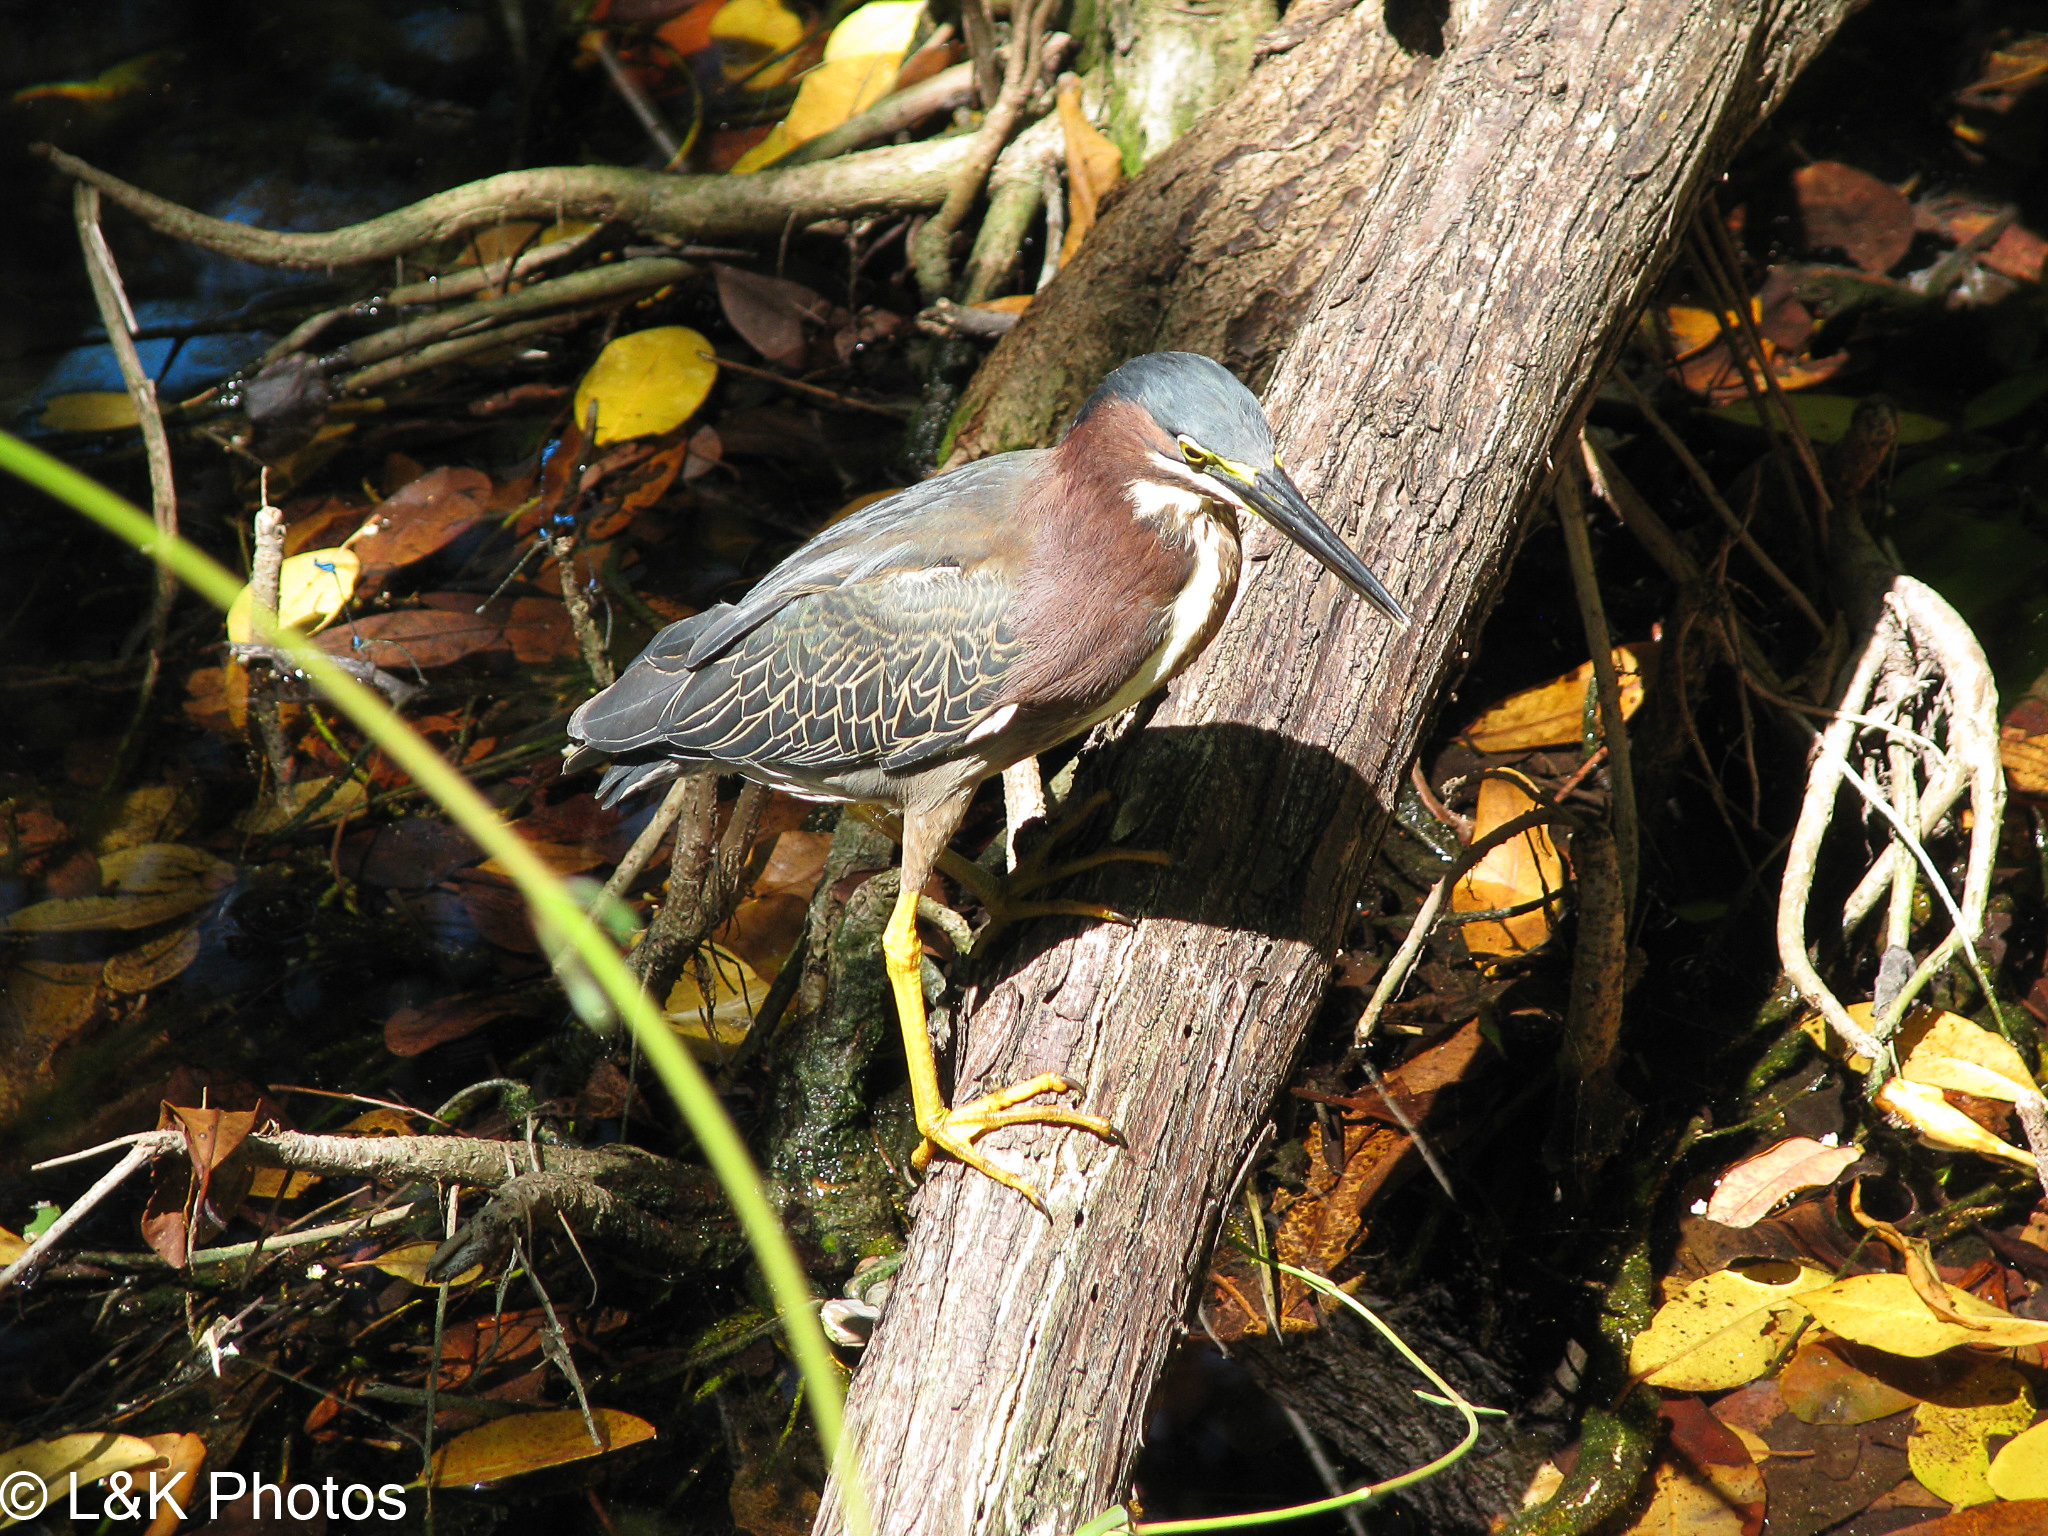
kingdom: Animalia
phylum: Chordata
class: Aves
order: Pelecaniformes
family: Ardeidae
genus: Butorides
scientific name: Butorides virescens
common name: Green heron
